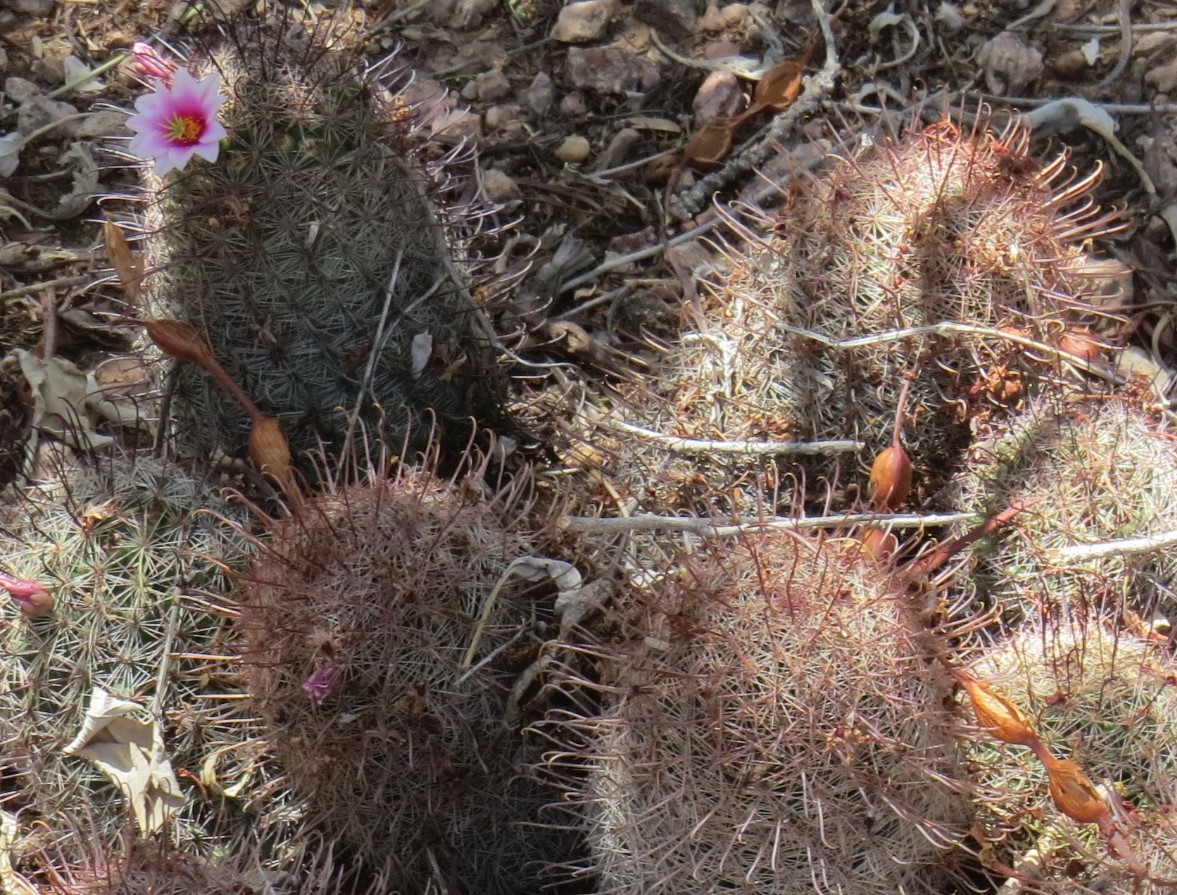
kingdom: Plantae
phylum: Tracheophyta
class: Magnoliopsida
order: Caryophyllales
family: Cactaceae
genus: Cochemiea
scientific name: Cochemiea grahamii
